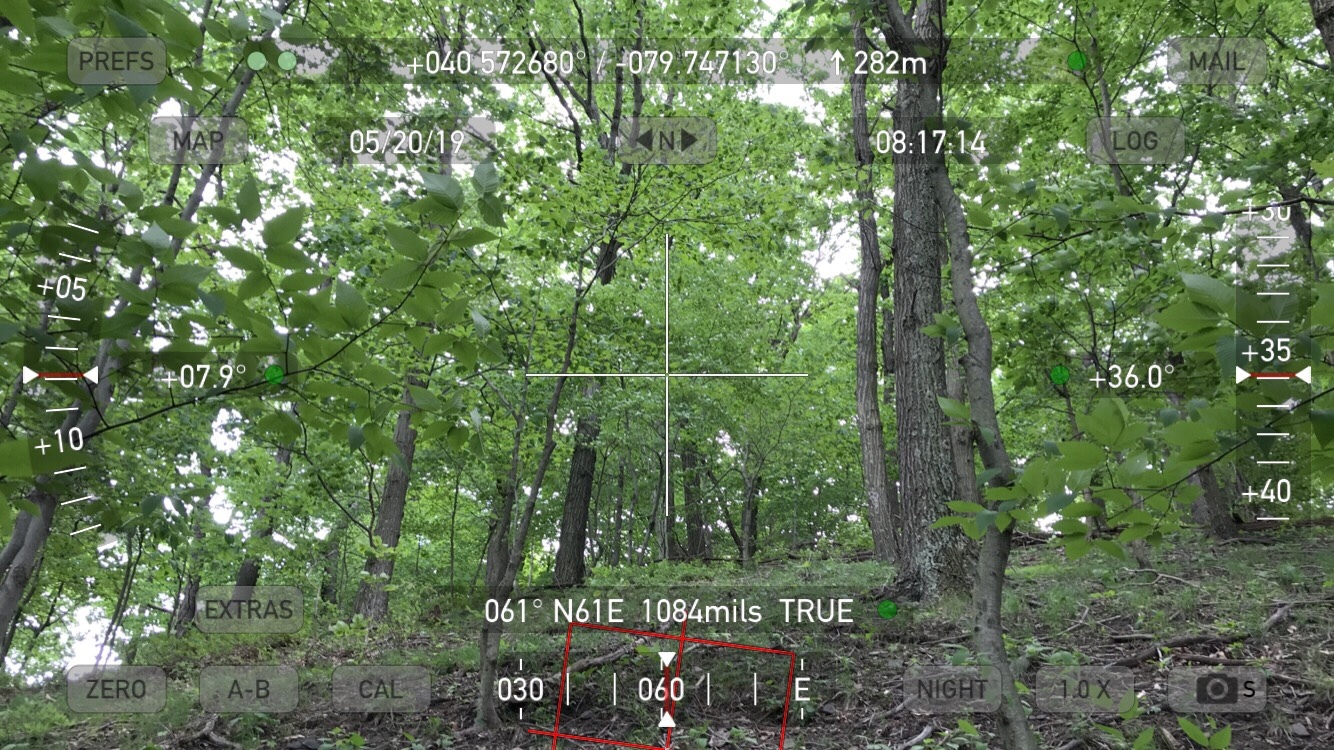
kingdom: Plantae
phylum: Tracheophyta
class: Magnoliopsida
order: Dipsacales
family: Viburnaceae
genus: Viburnum
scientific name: Viburnum acerifolium
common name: Dockmackie
